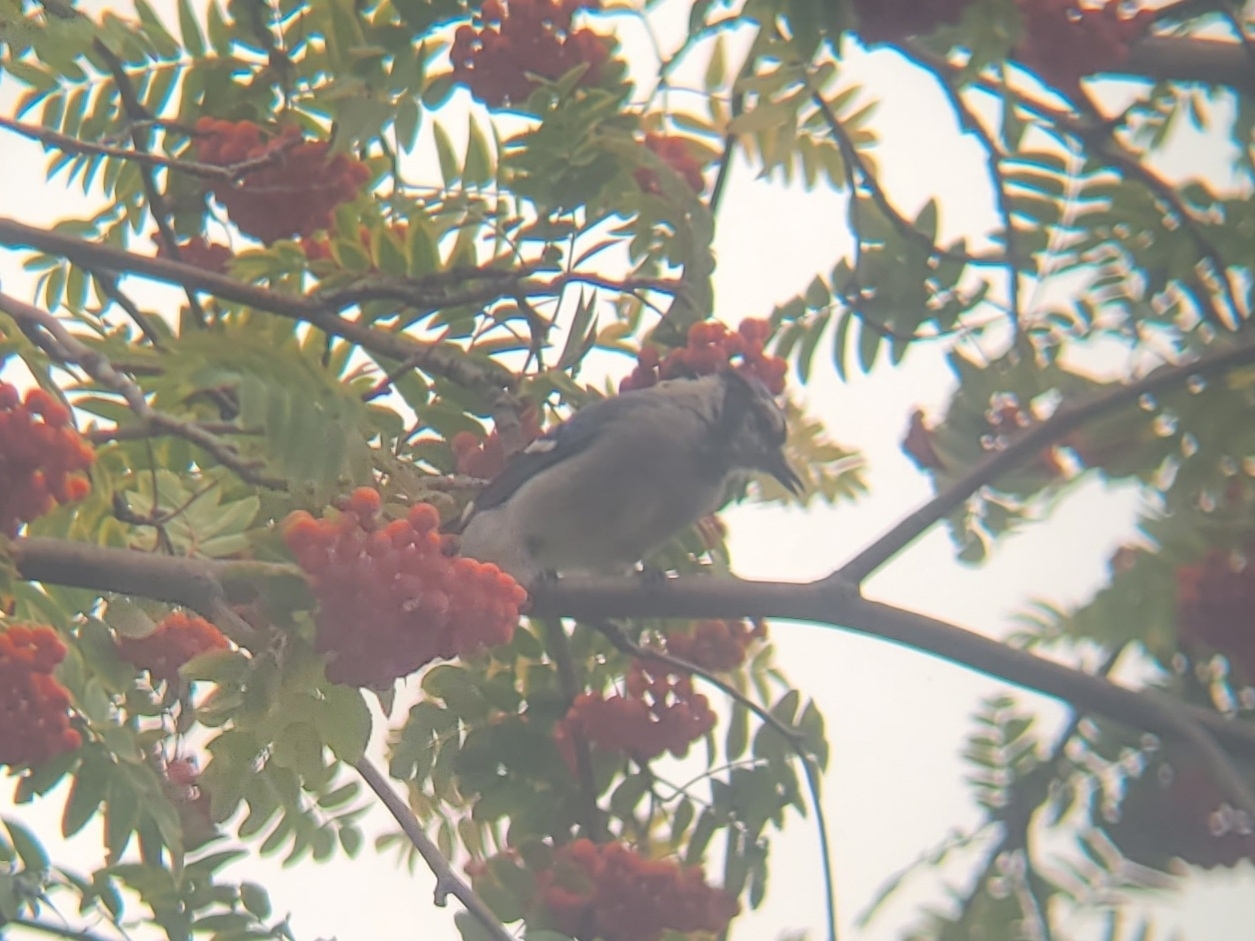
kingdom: Animalia
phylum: Chordata
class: Aves
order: Passeriformes
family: Corvidae
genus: Cyanocitta
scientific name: Cyanocitta cristata
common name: Blue jay
